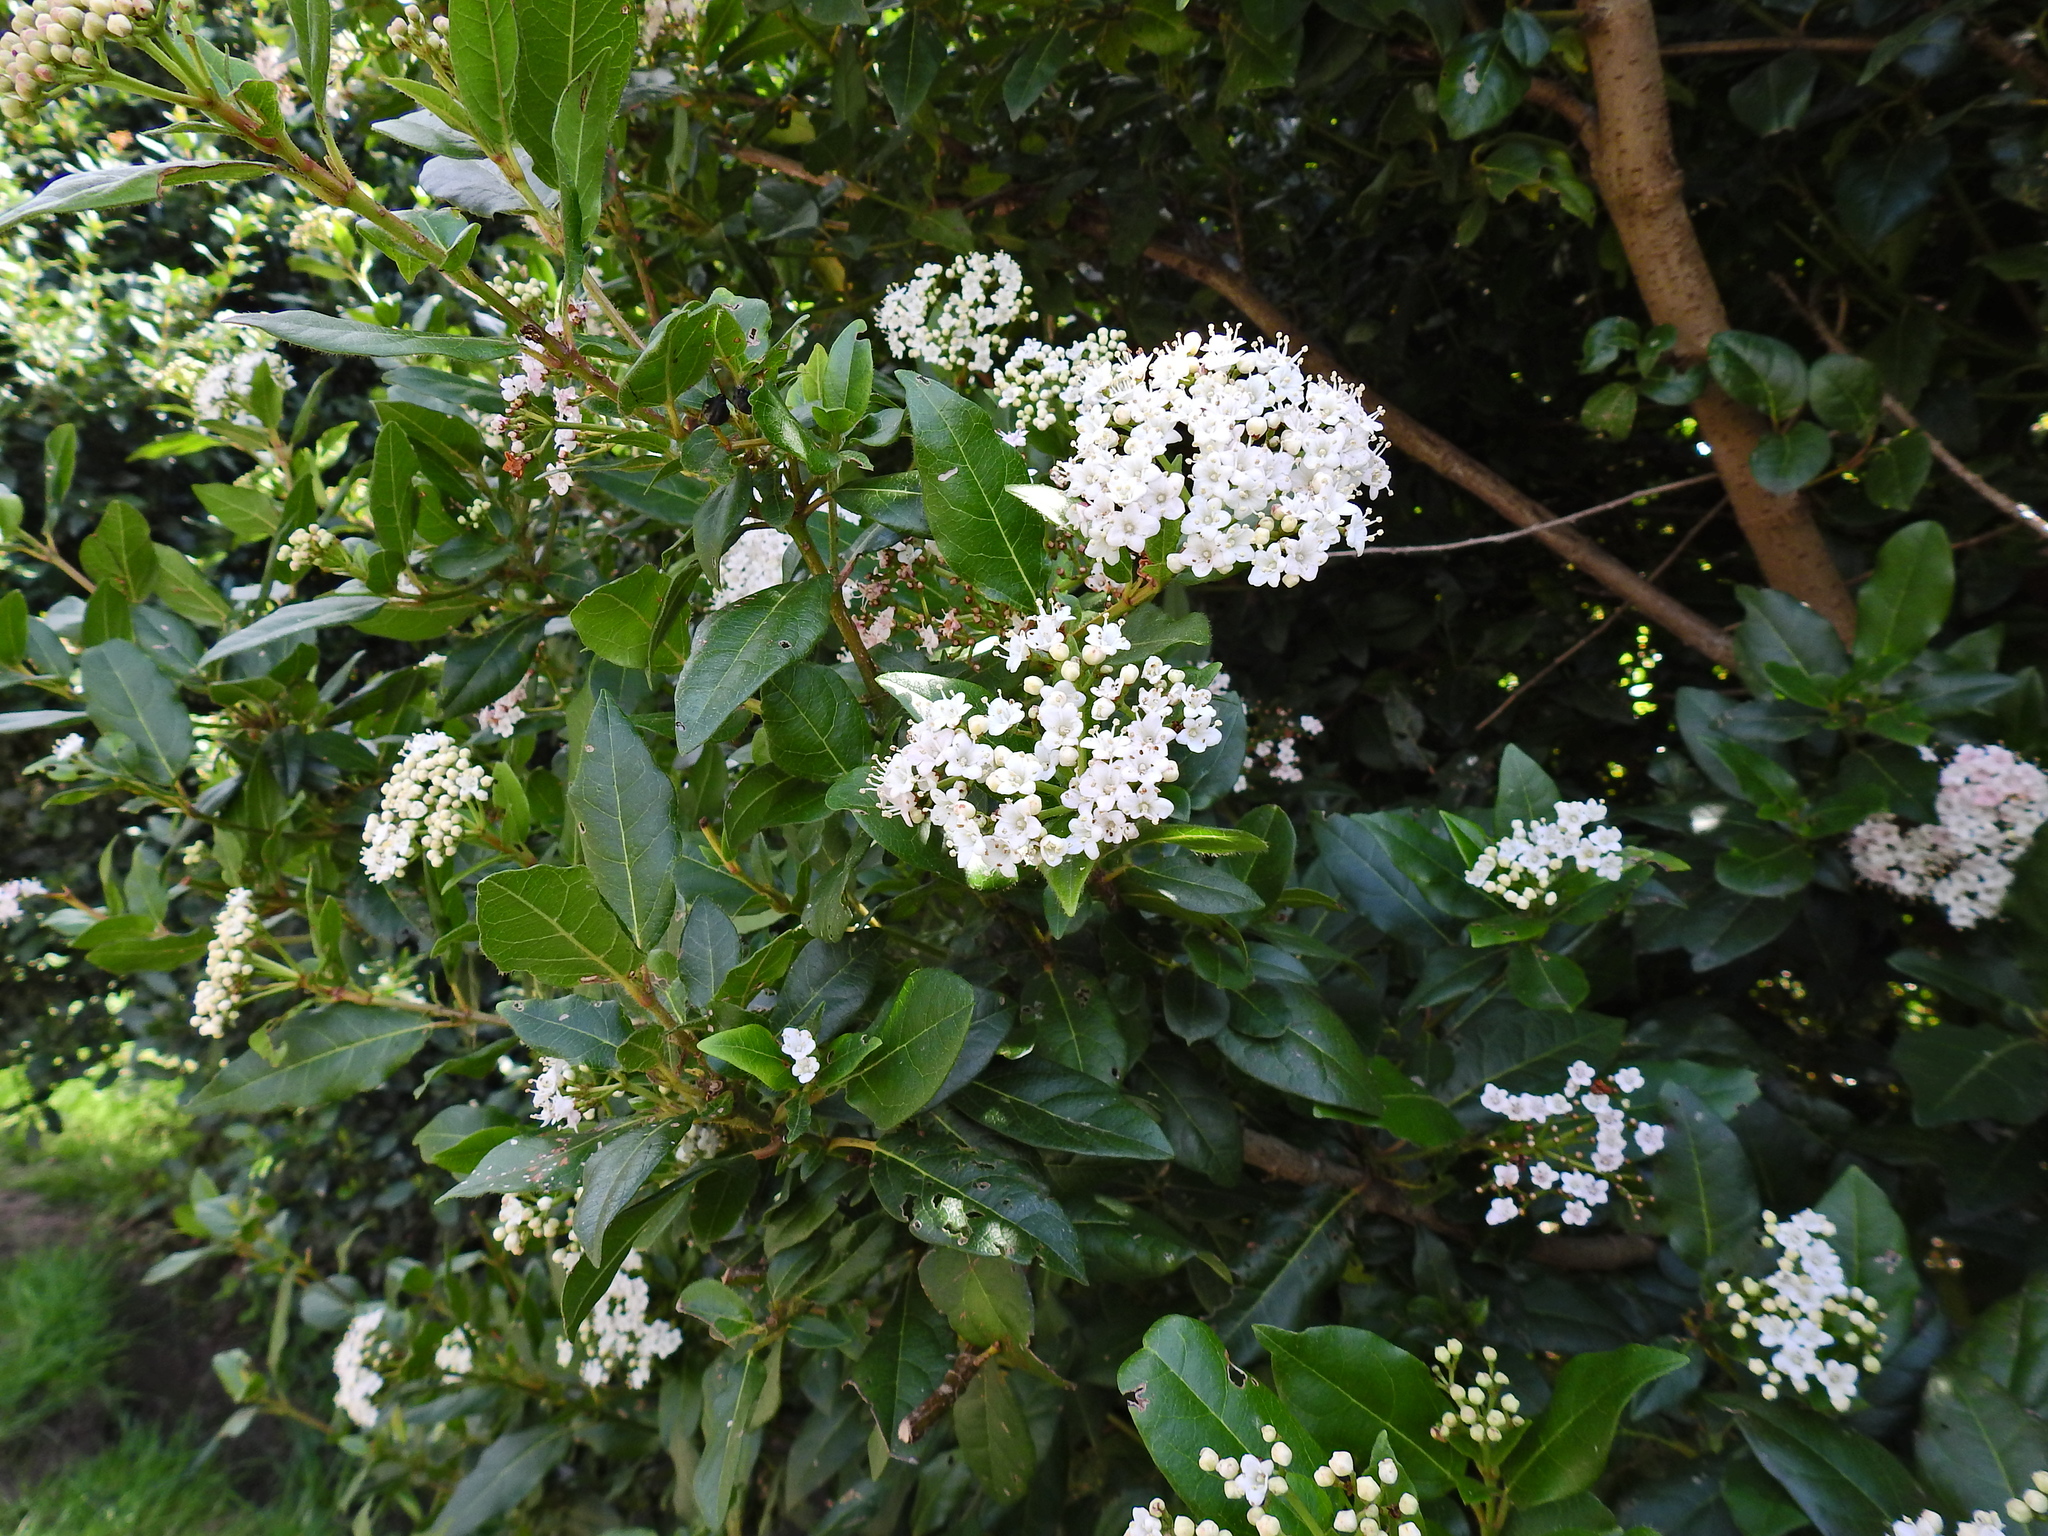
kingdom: Plantae
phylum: Tracheophyta
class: Magnoliopsida
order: Dipsacales
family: Viburnaceae
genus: Viburnum
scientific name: Viburnum tinus
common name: Laurustinus
